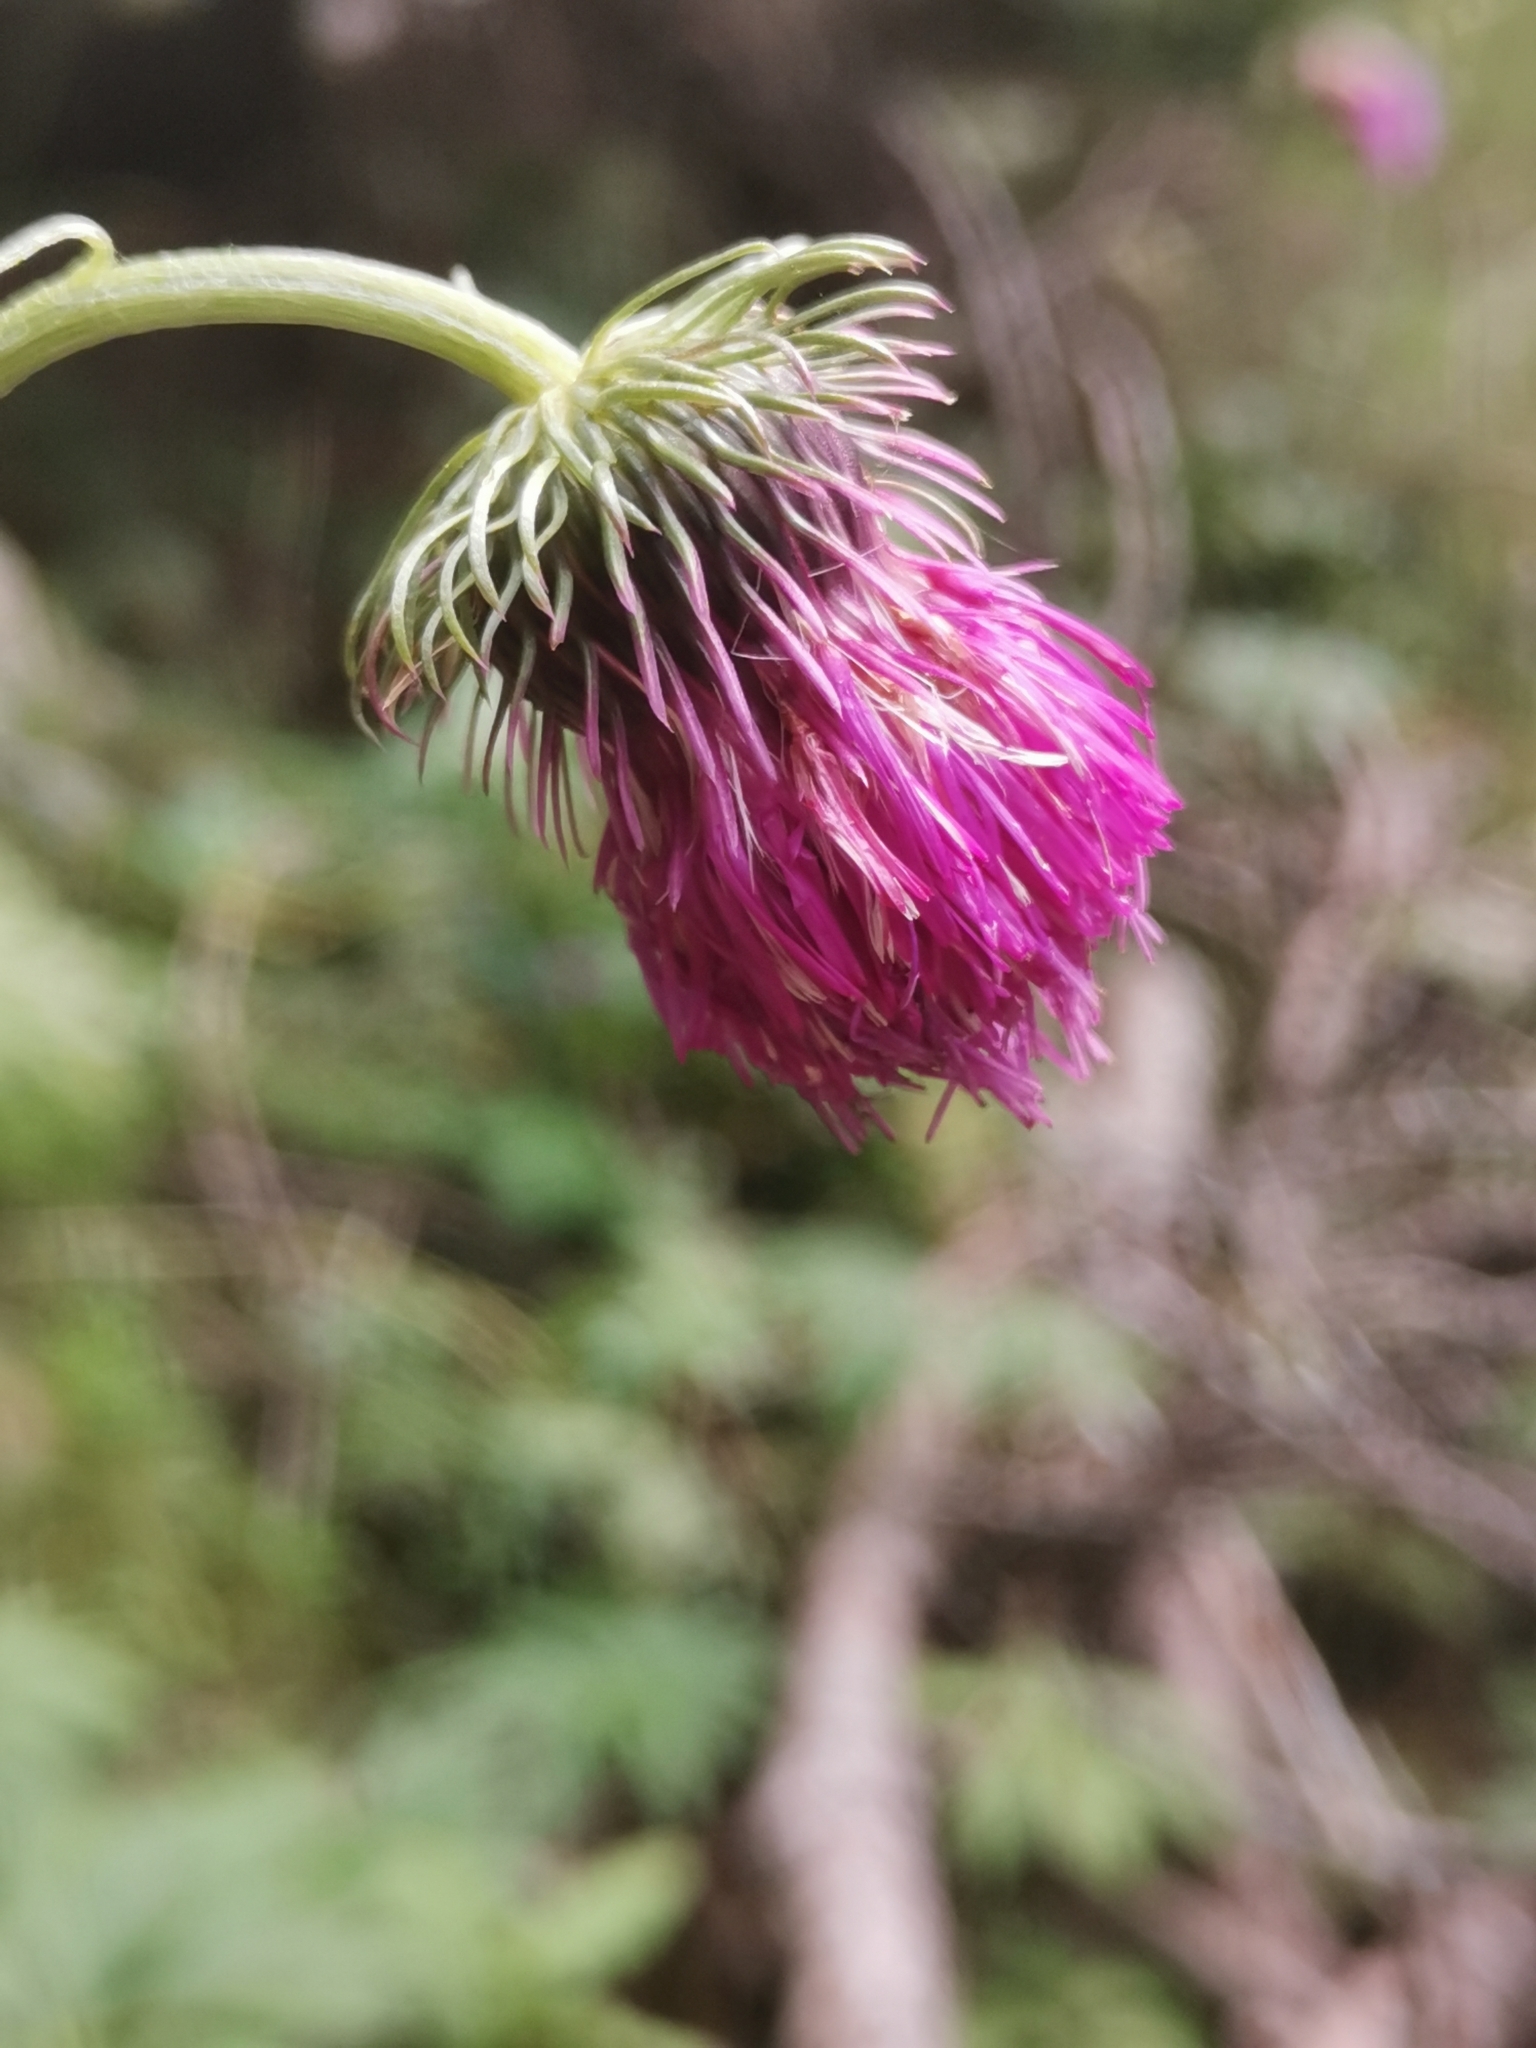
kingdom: Plantae
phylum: Tracheophyta
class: Magnoliopsida
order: Asterales
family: Asteraceae
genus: Carduus
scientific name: Carduus carduelis
